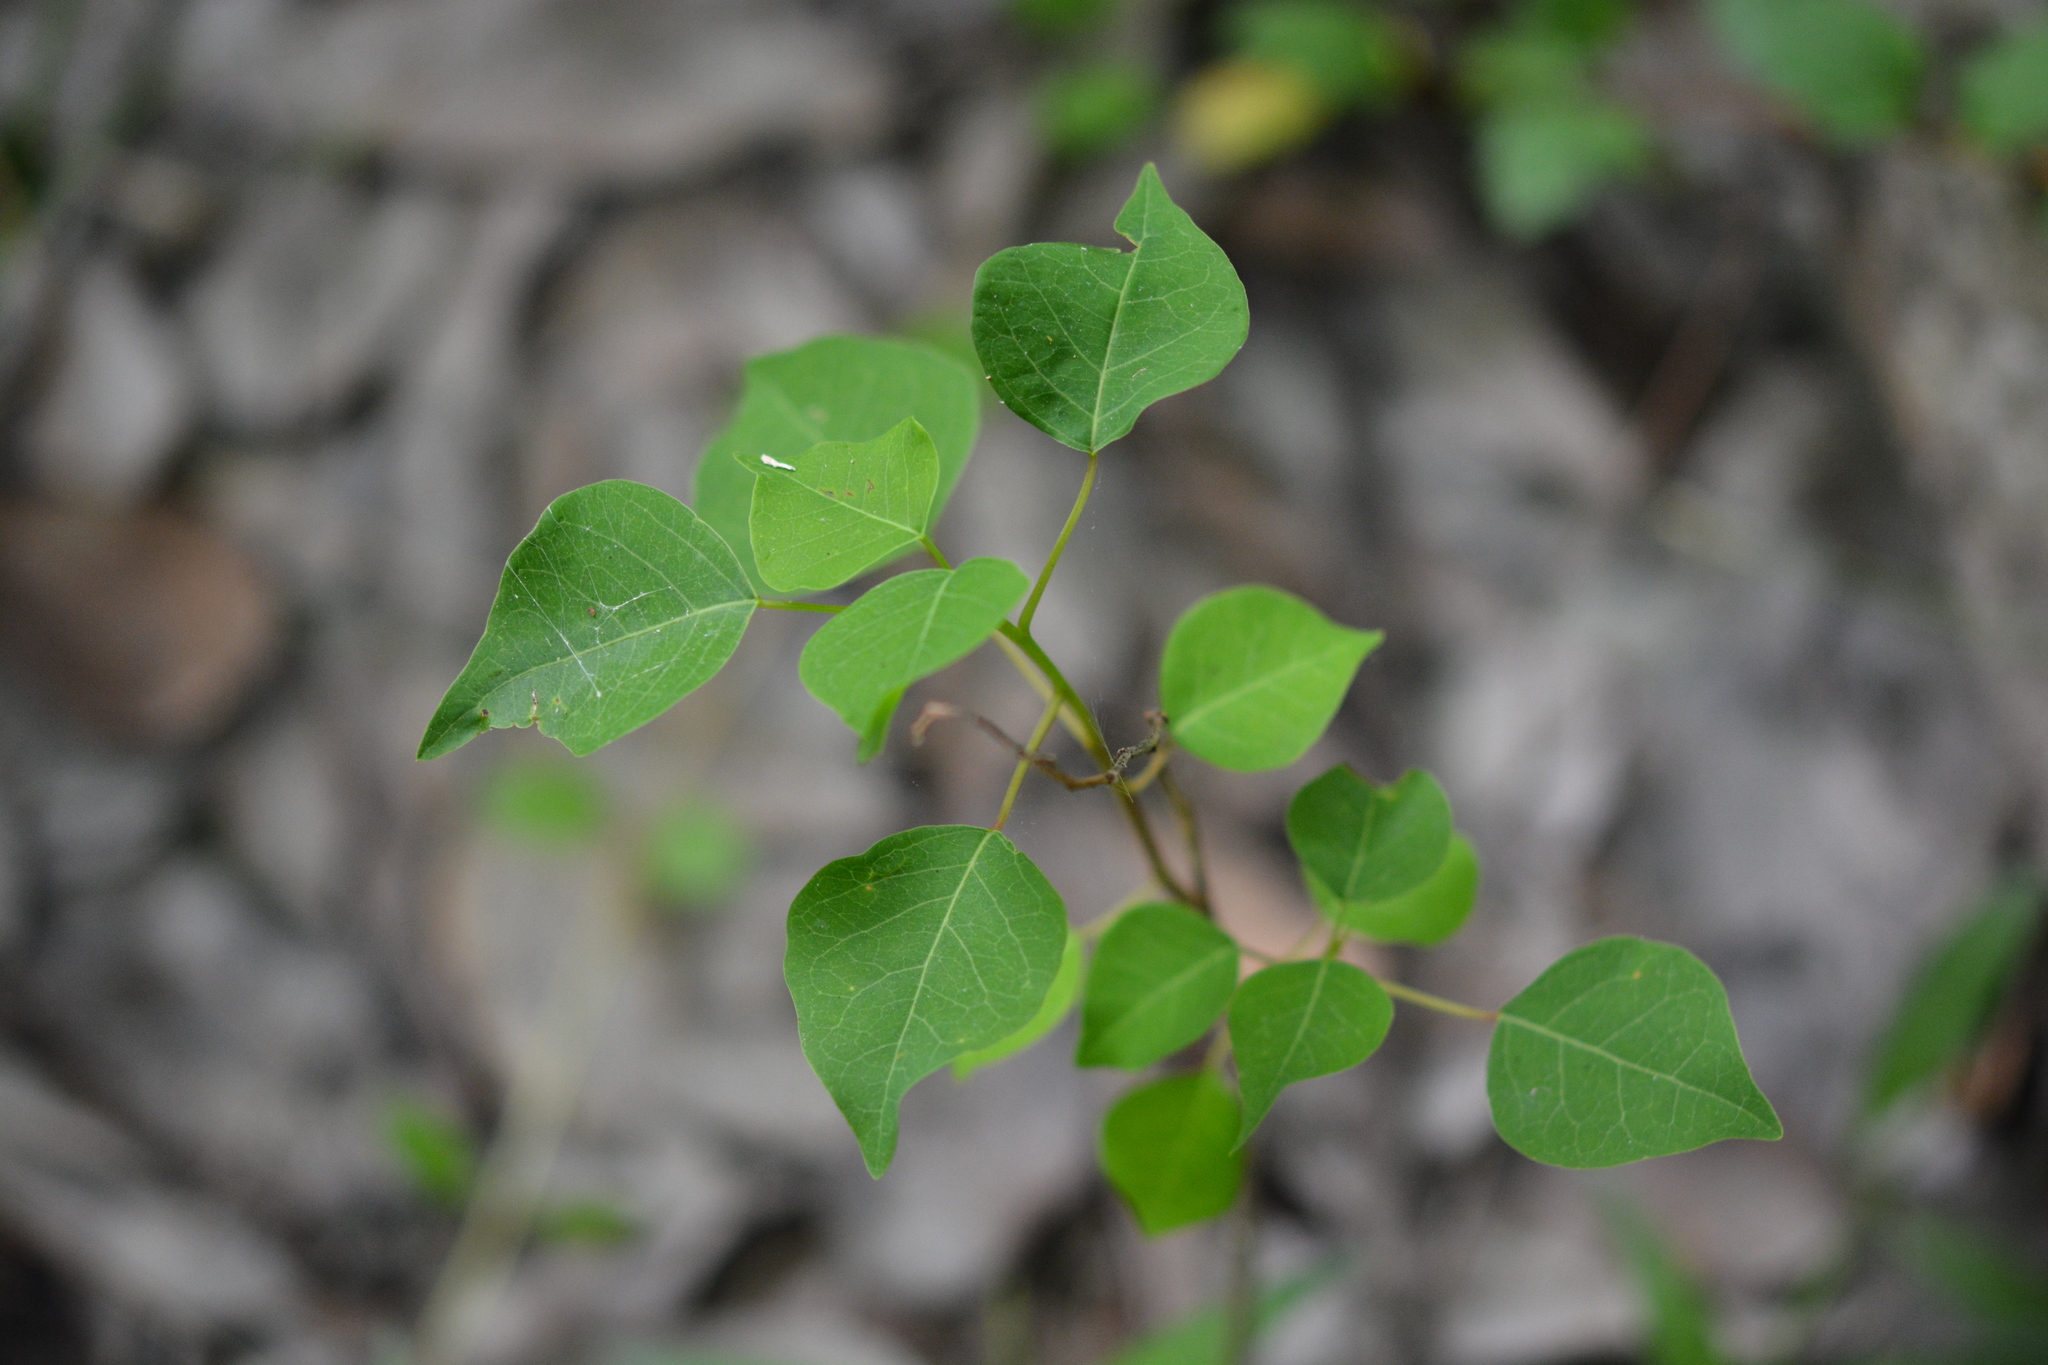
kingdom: Plantae
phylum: Tracheophyta
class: Magnoliopsida
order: Malpighiales
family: Euphorbiaceae
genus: Triadica
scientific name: Triadica sebifera
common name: Chinese tallow
